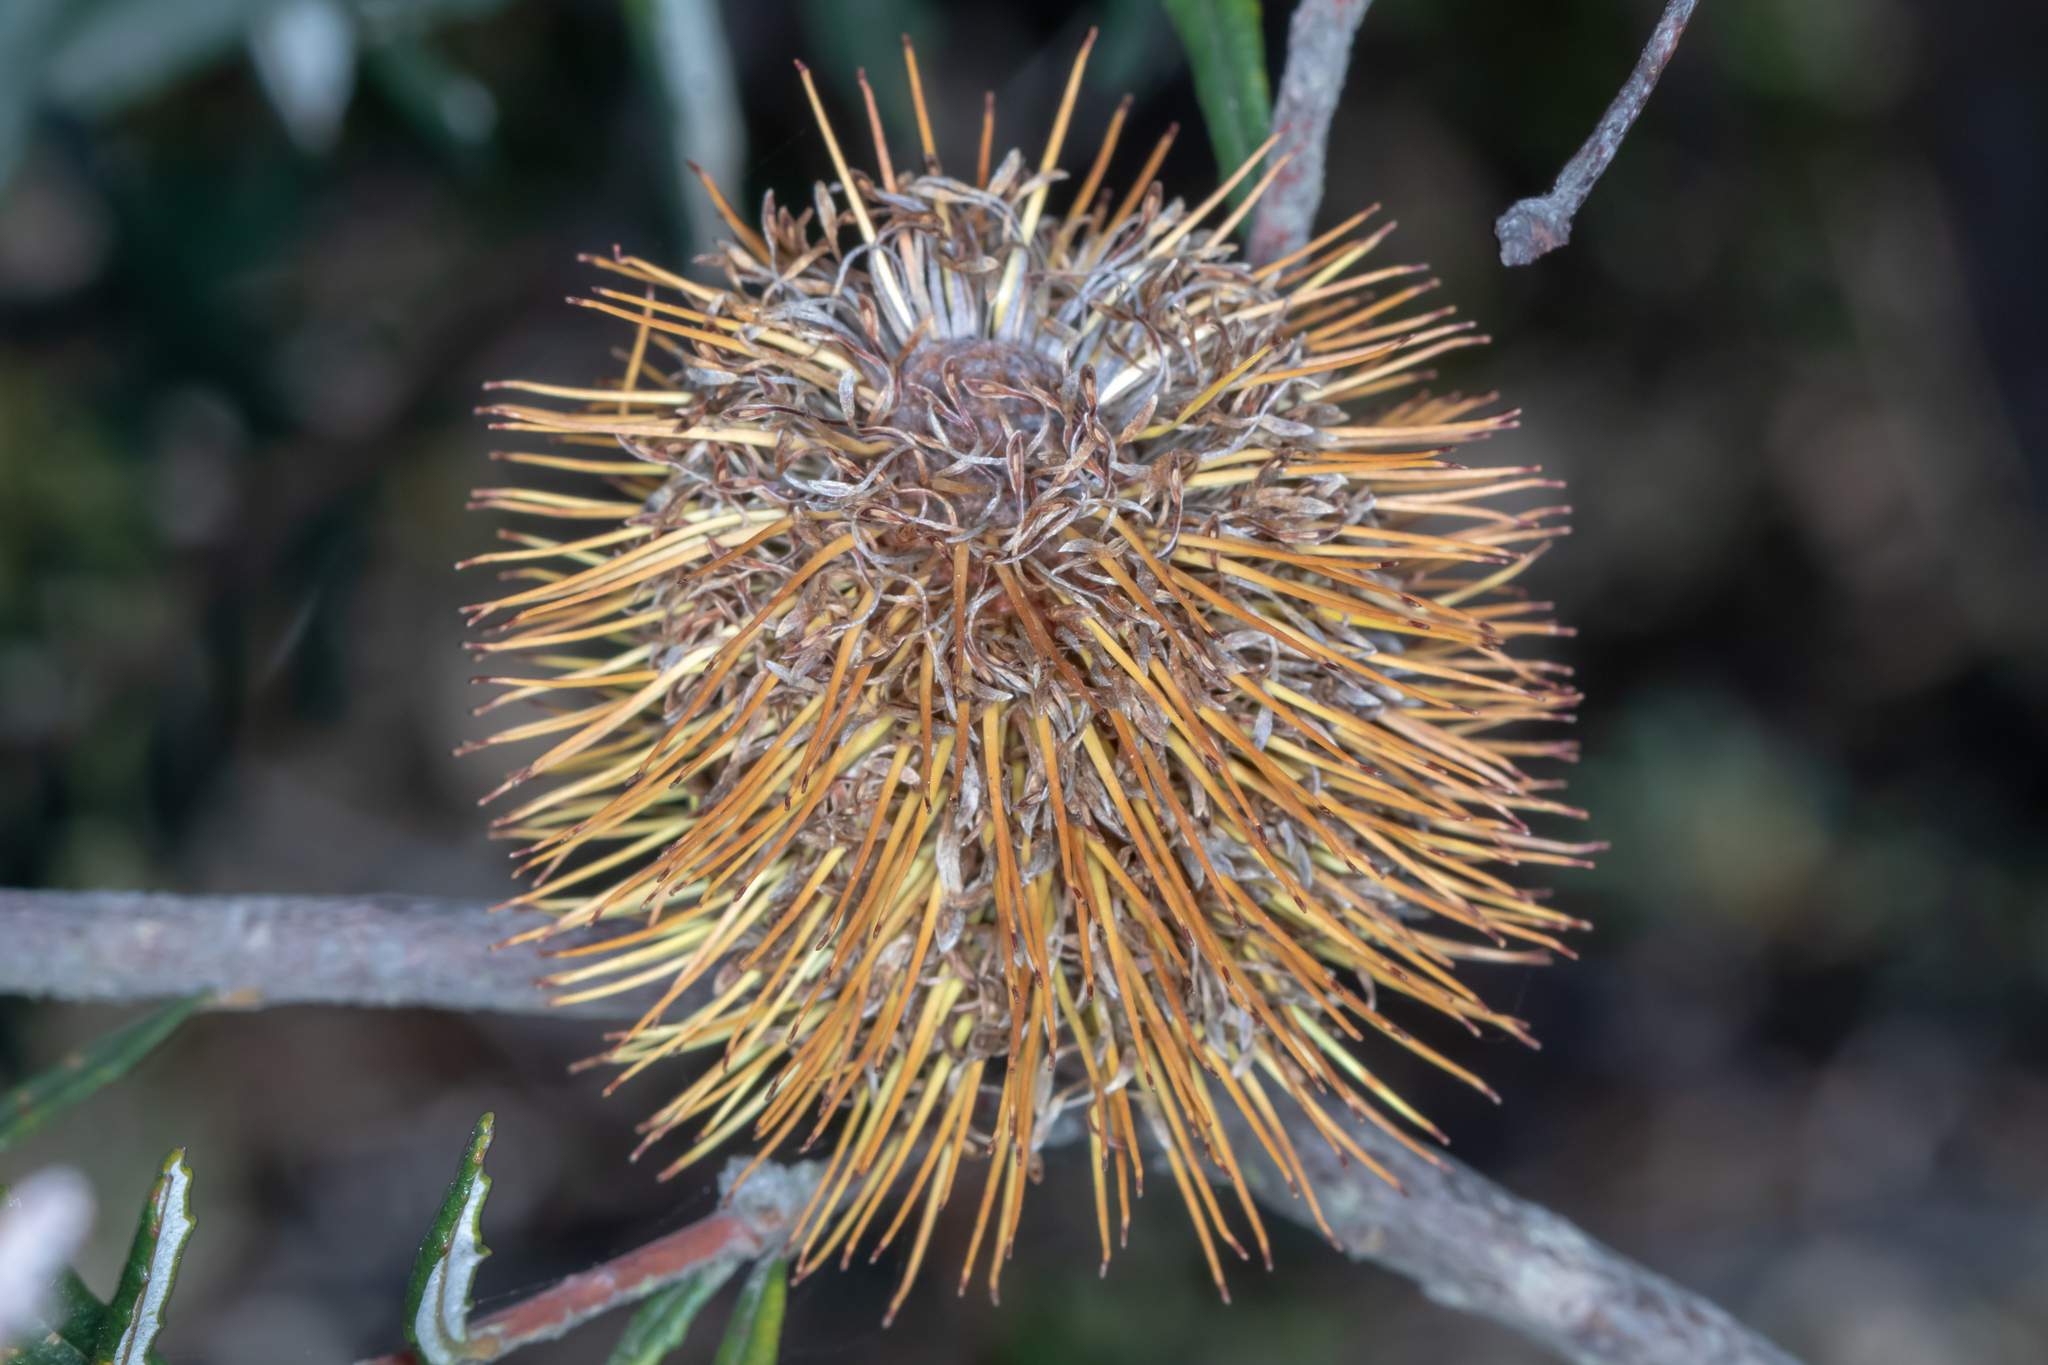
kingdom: Plantae
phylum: Tracheophyta
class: Magnoliopsida
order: Proteales
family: Proteaceae
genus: Banksia
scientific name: Banksia marginata
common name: Silver banksia
